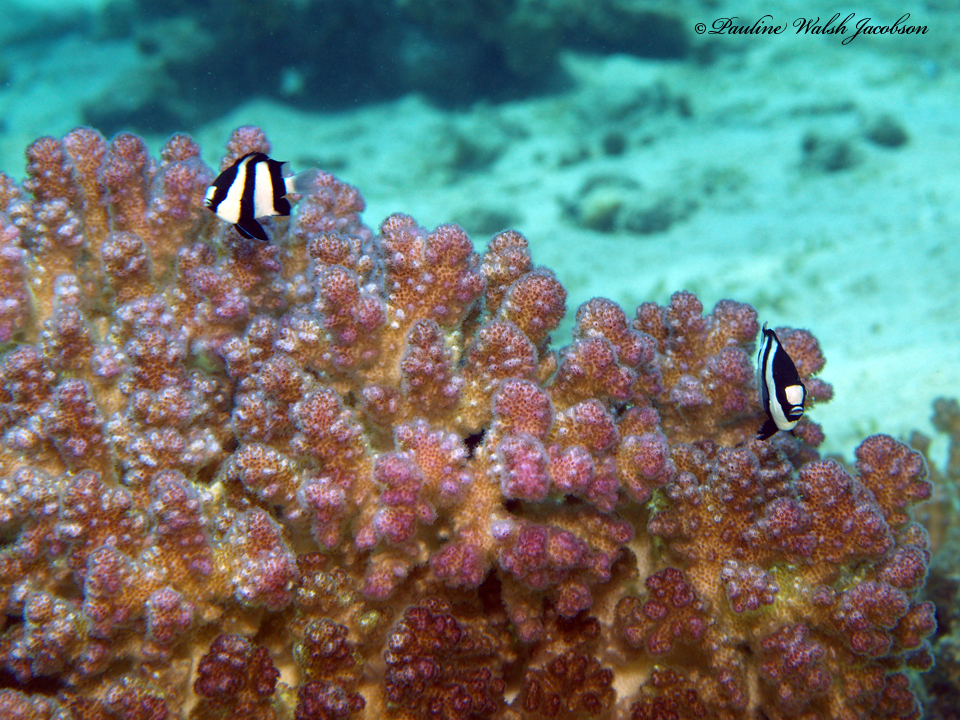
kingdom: Animalia
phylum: Chordata
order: Perciformes
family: Pomacentridae
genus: Dascyllus
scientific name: Dascyllus abudafur
